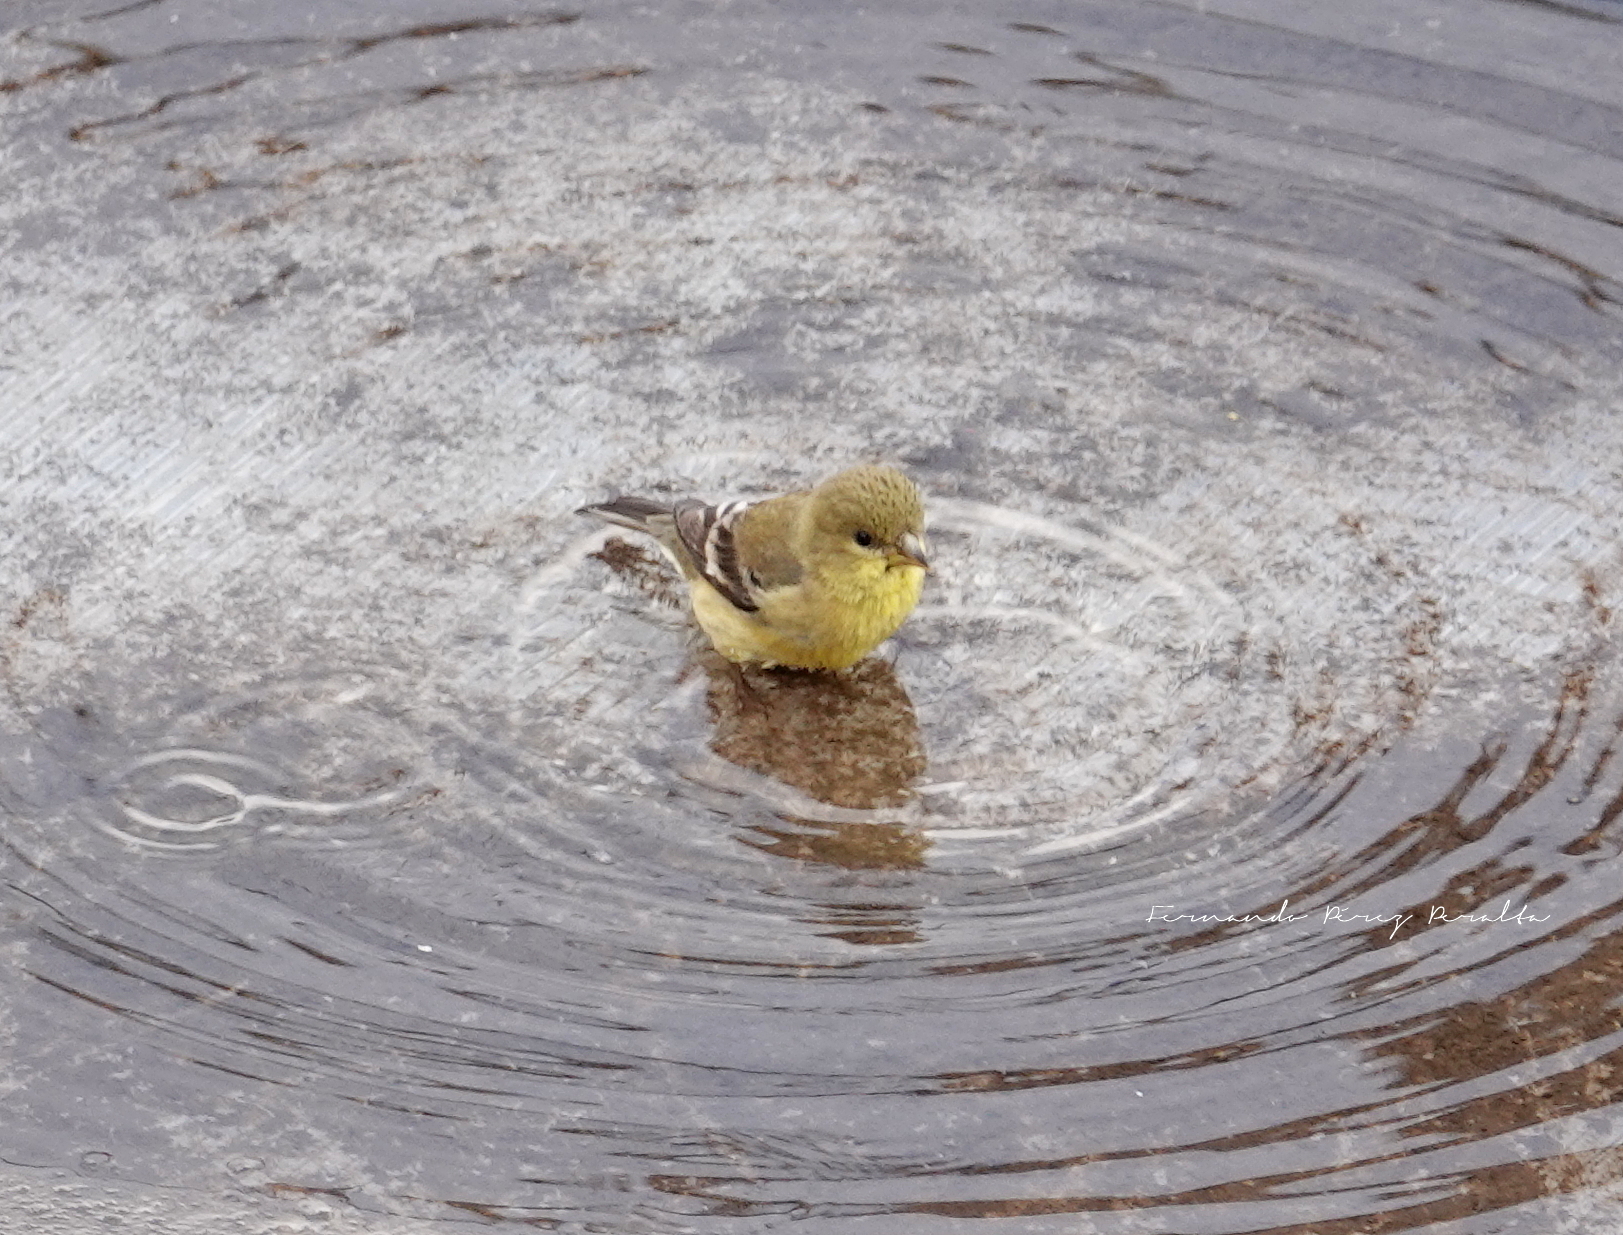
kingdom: Animalia
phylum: Chordata
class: Aves
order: Passeriformes
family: Fringillidae
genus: Spinus
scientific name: Spinus psaltria
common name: Lesser goldfinch
